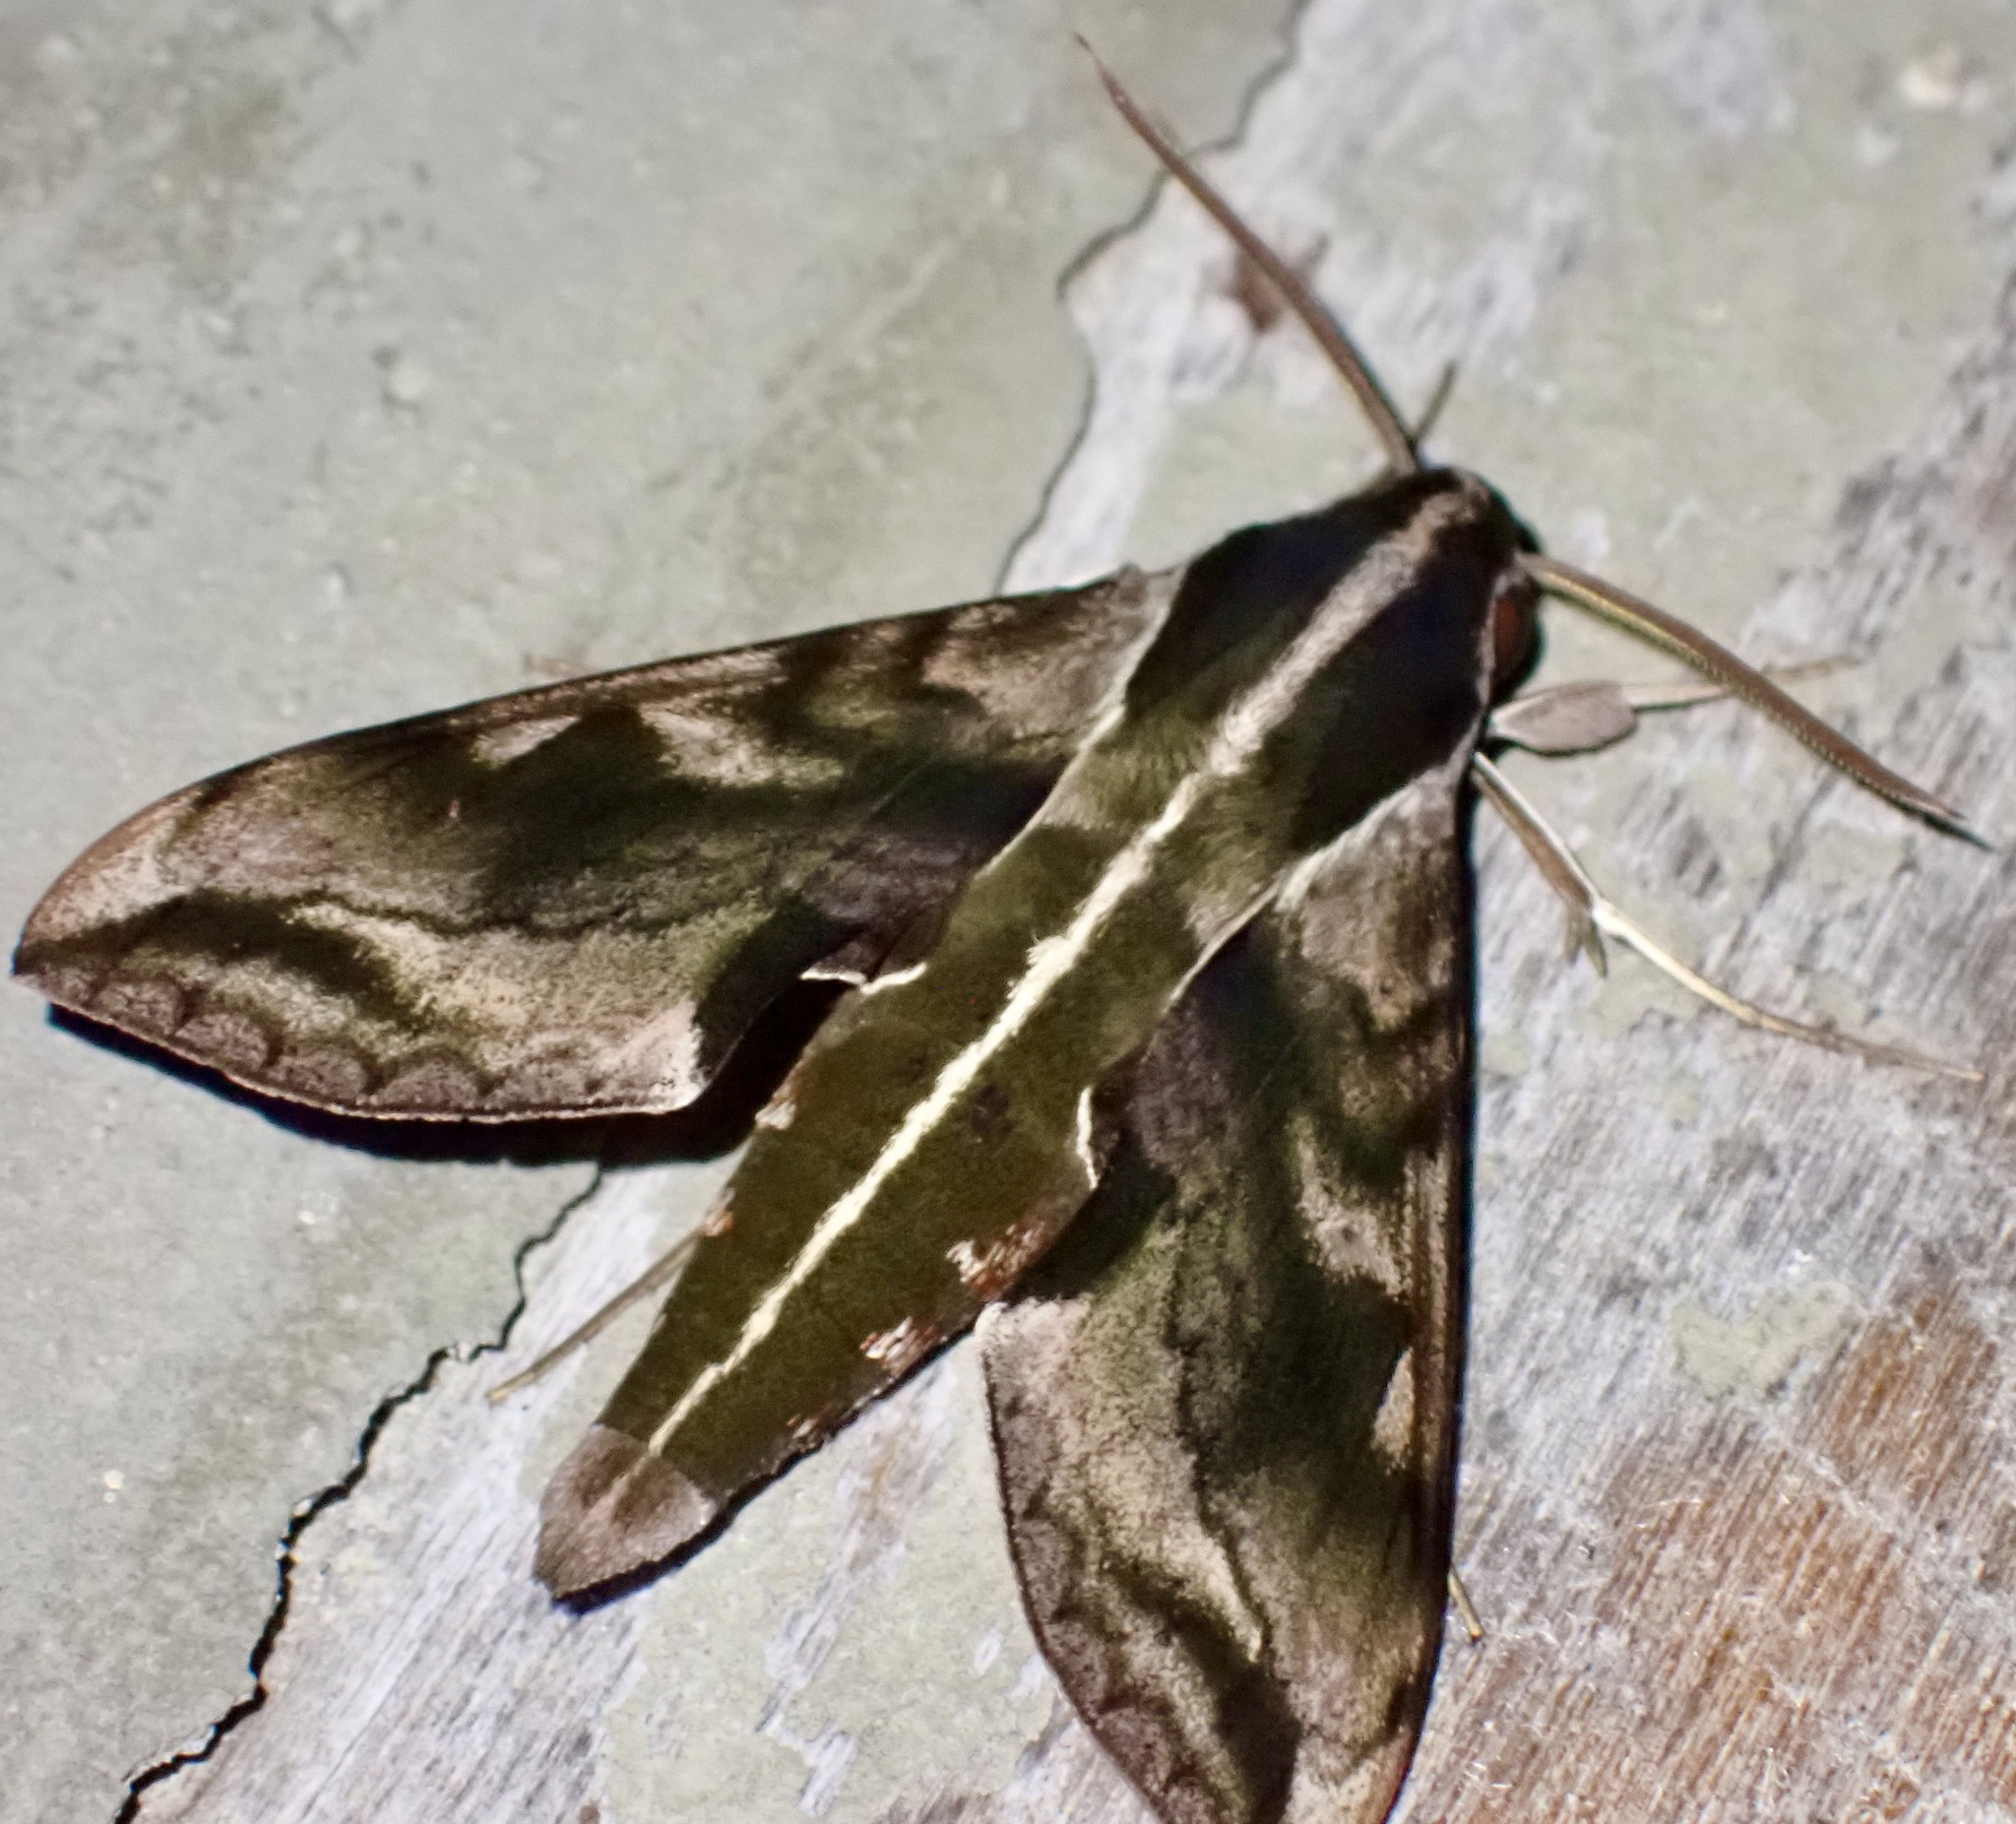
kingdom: Animalia
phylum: Arthropoda
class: Insecta
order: Lepidoptera
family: Sphingidae
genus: Hippotion
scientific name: Hippotion brunnea
